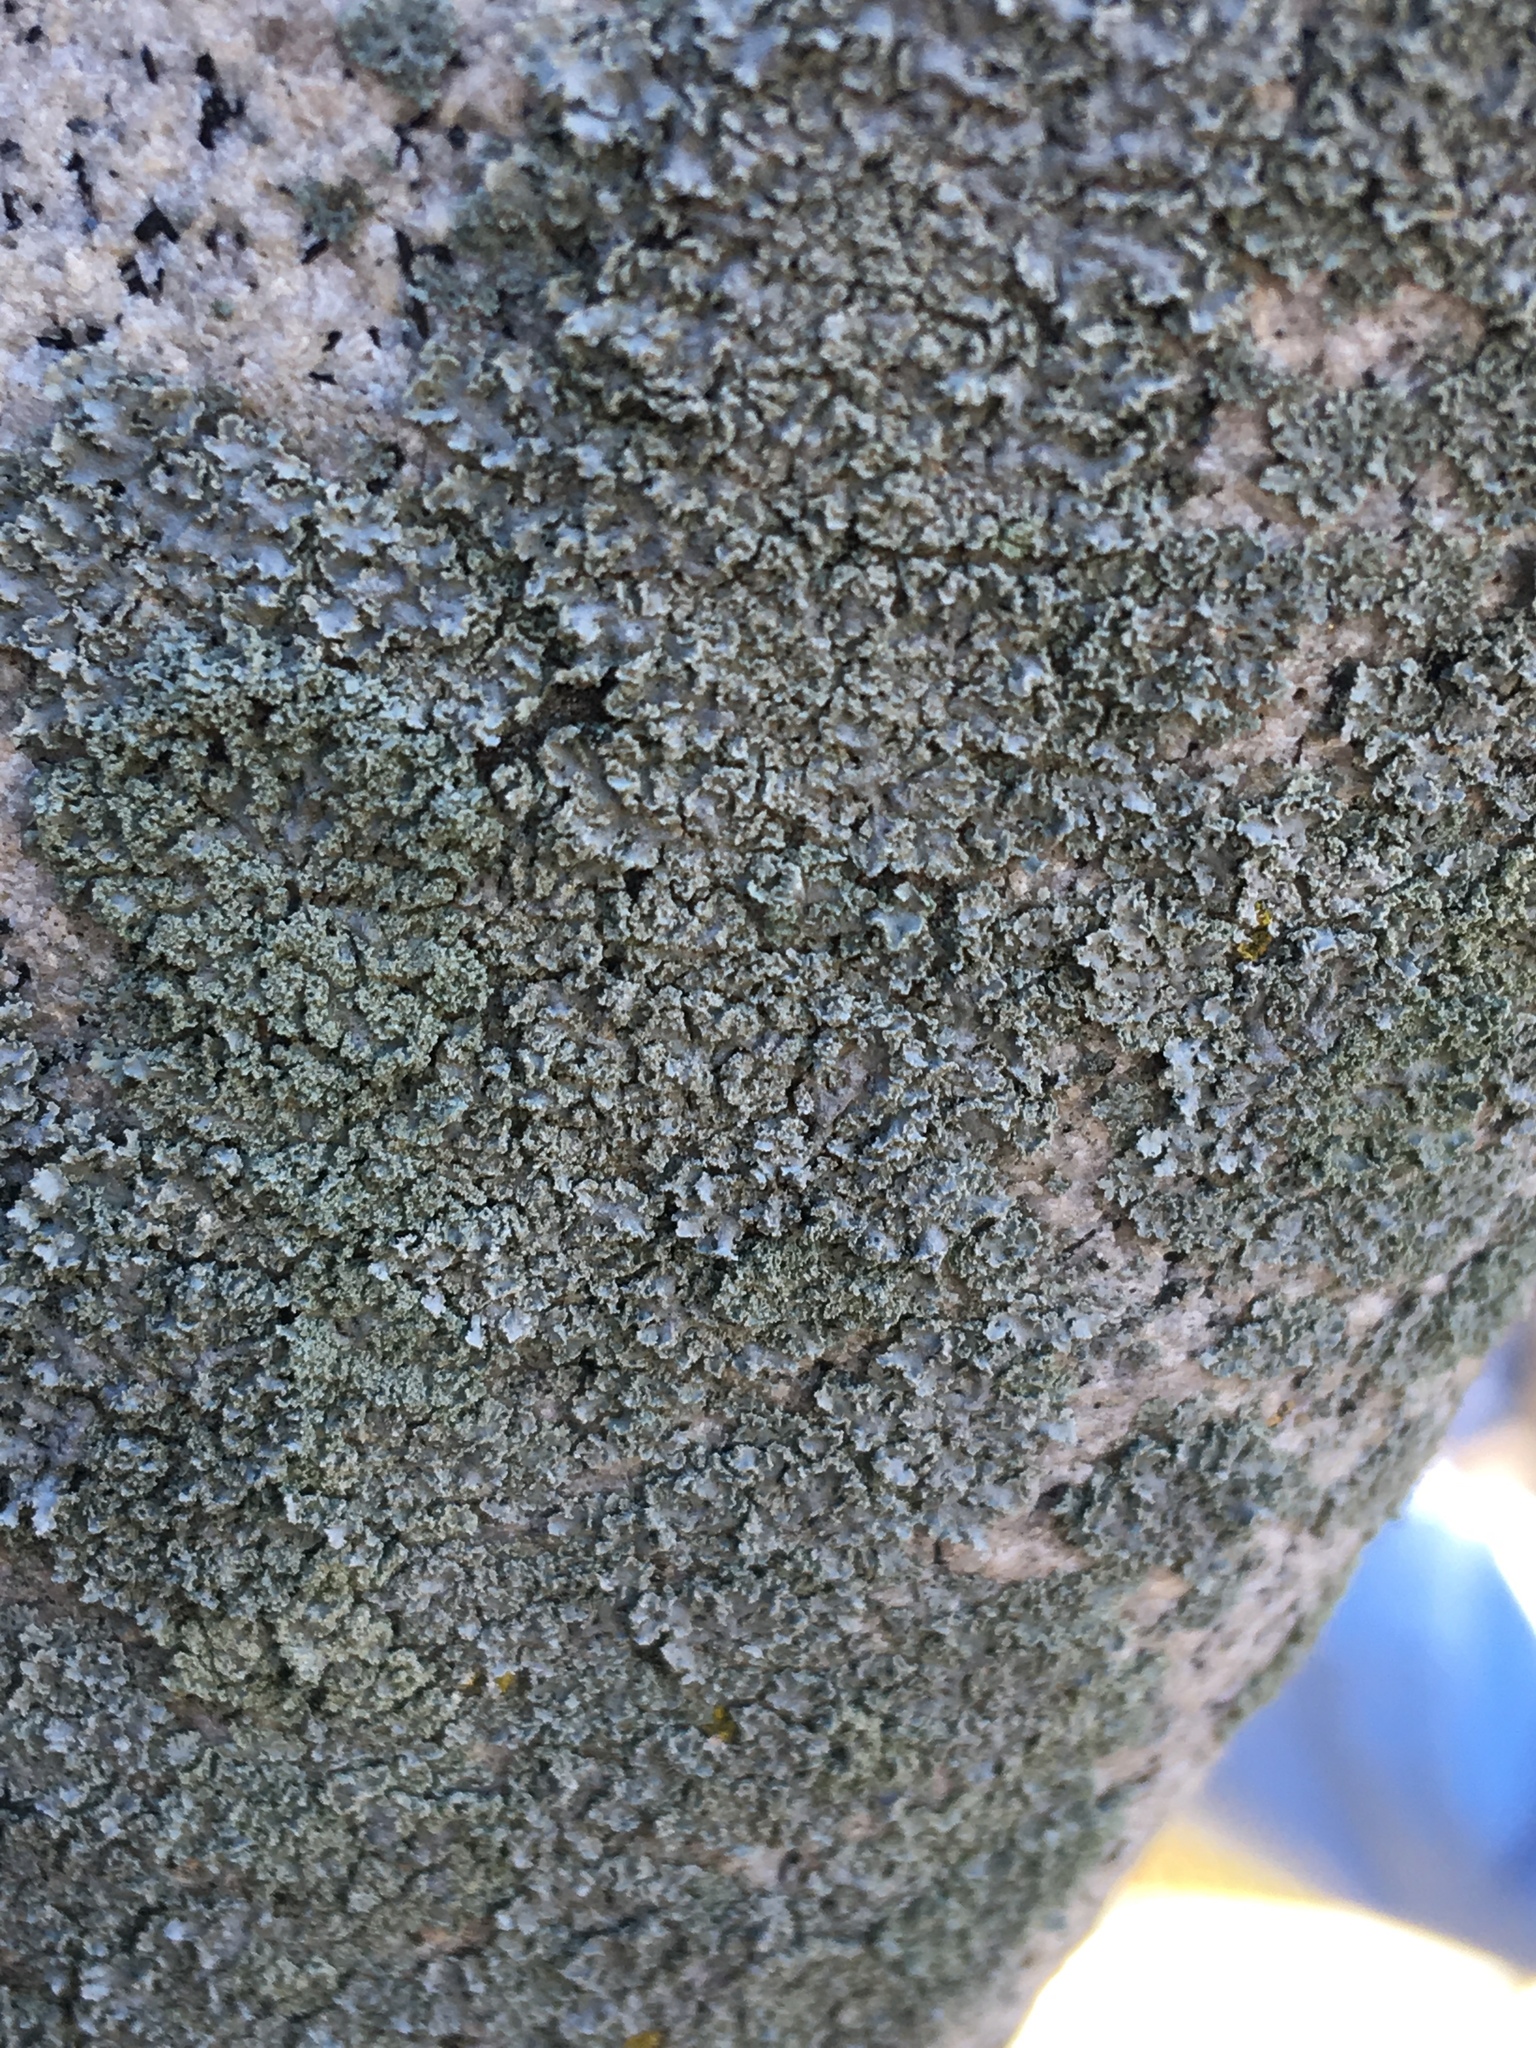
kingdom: Fungi
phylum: Ascomycota
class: Lecanoromycetes
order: Caliciales
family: Physciaceae
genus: Physcia
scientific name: Physcia millegrana
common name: Rosette lichen
